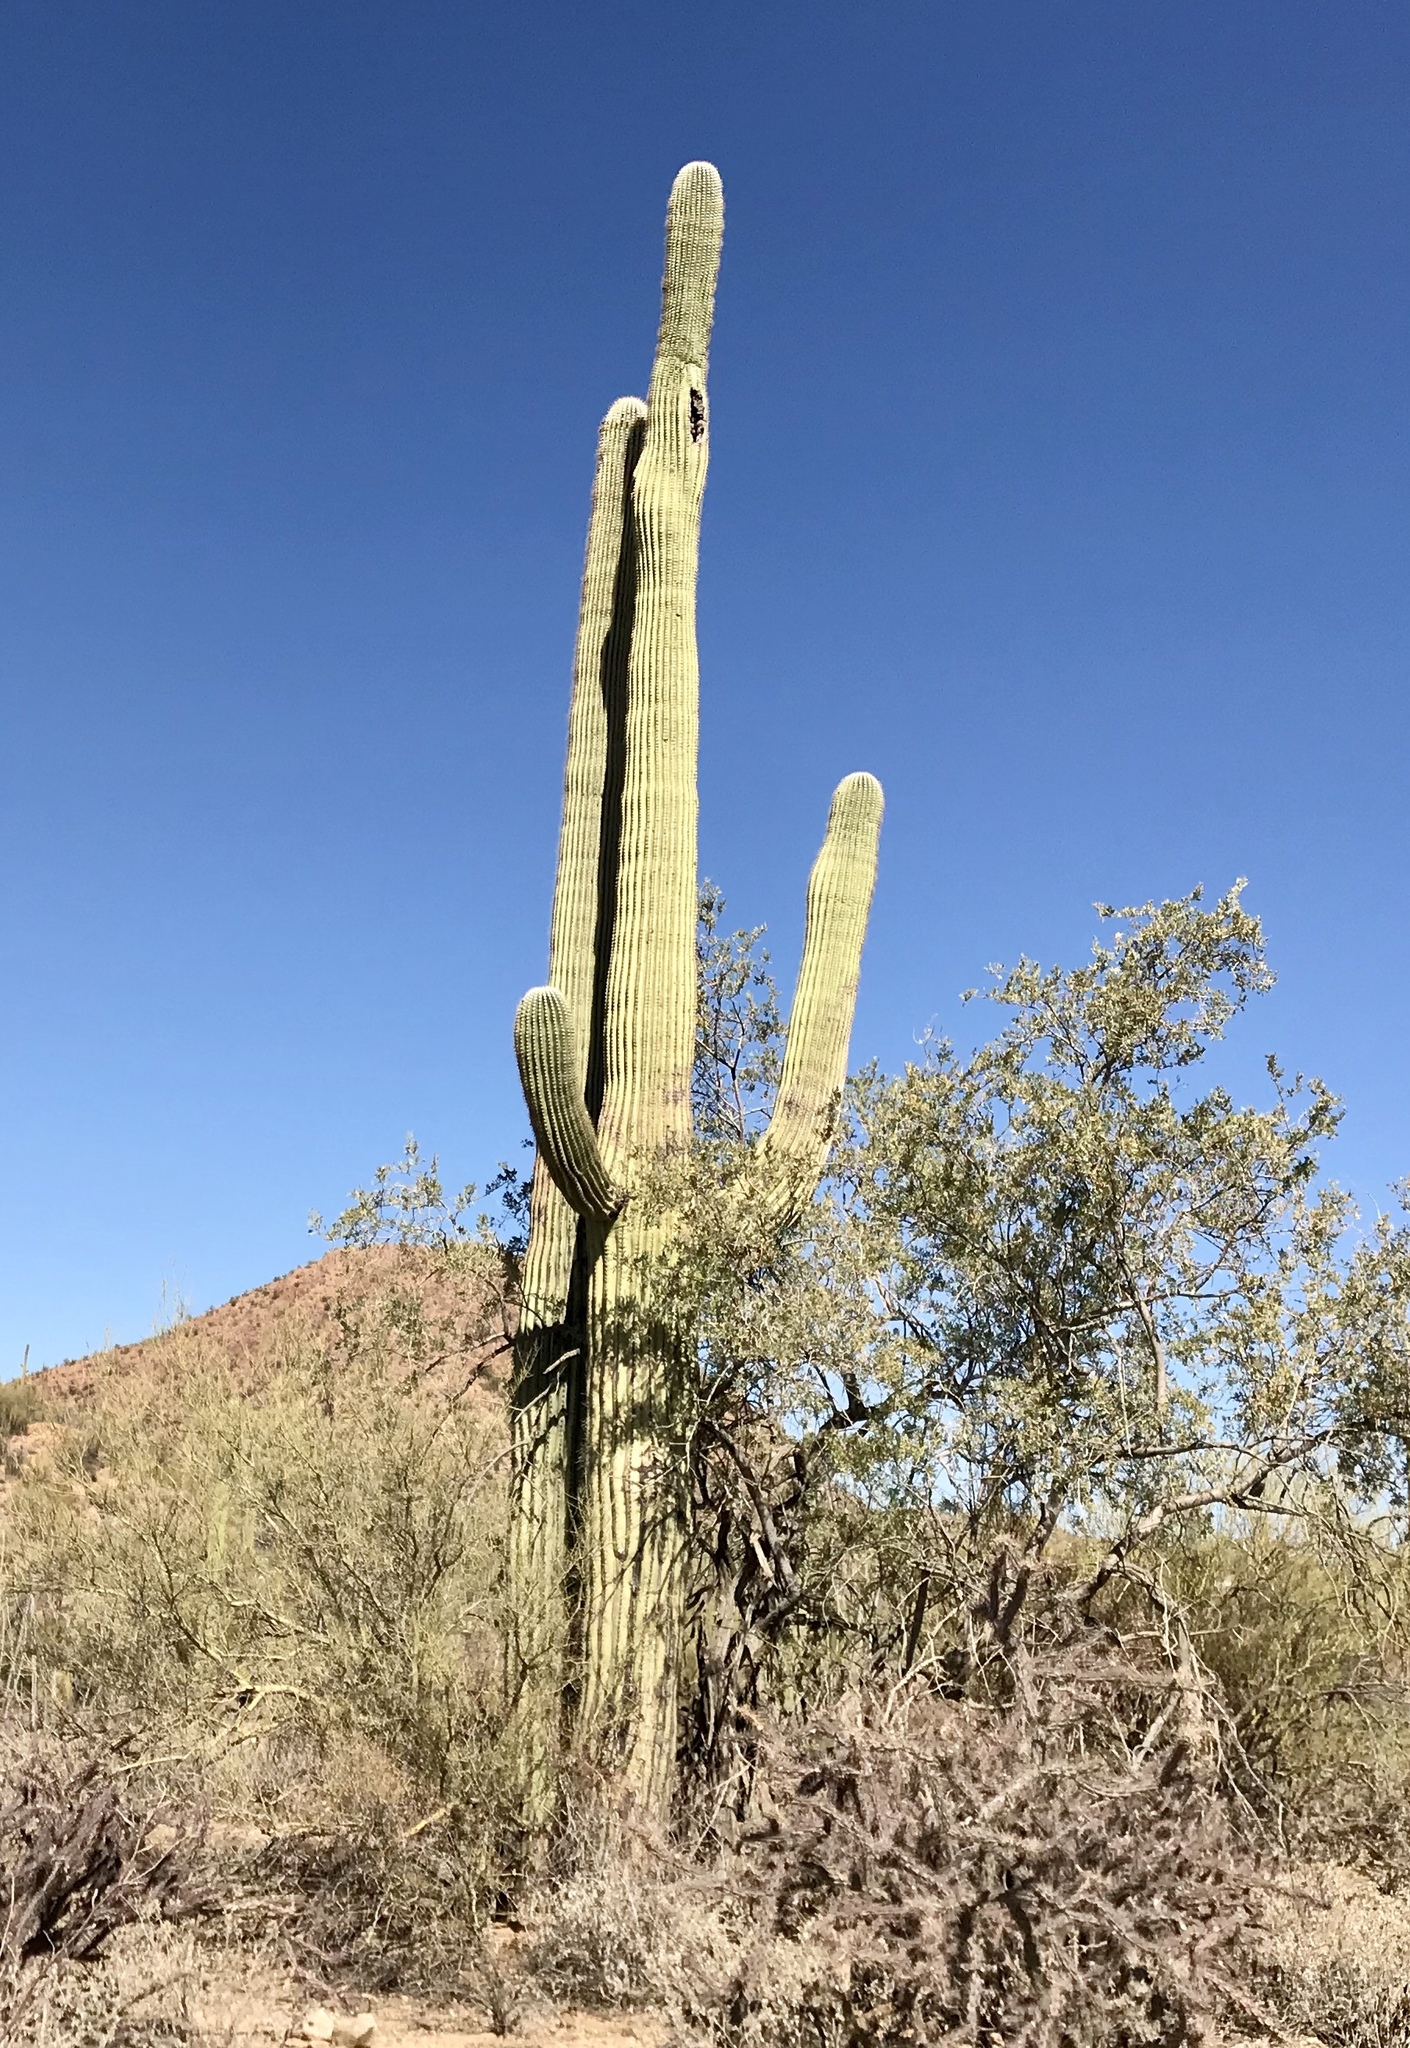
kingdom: Plantae
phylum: Tracheophyta
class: Magnoliopsida
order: Caryophyllales
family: Cactaceae
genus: Carnegiea
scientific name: Carnegiea gigantea
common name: Saguaro
